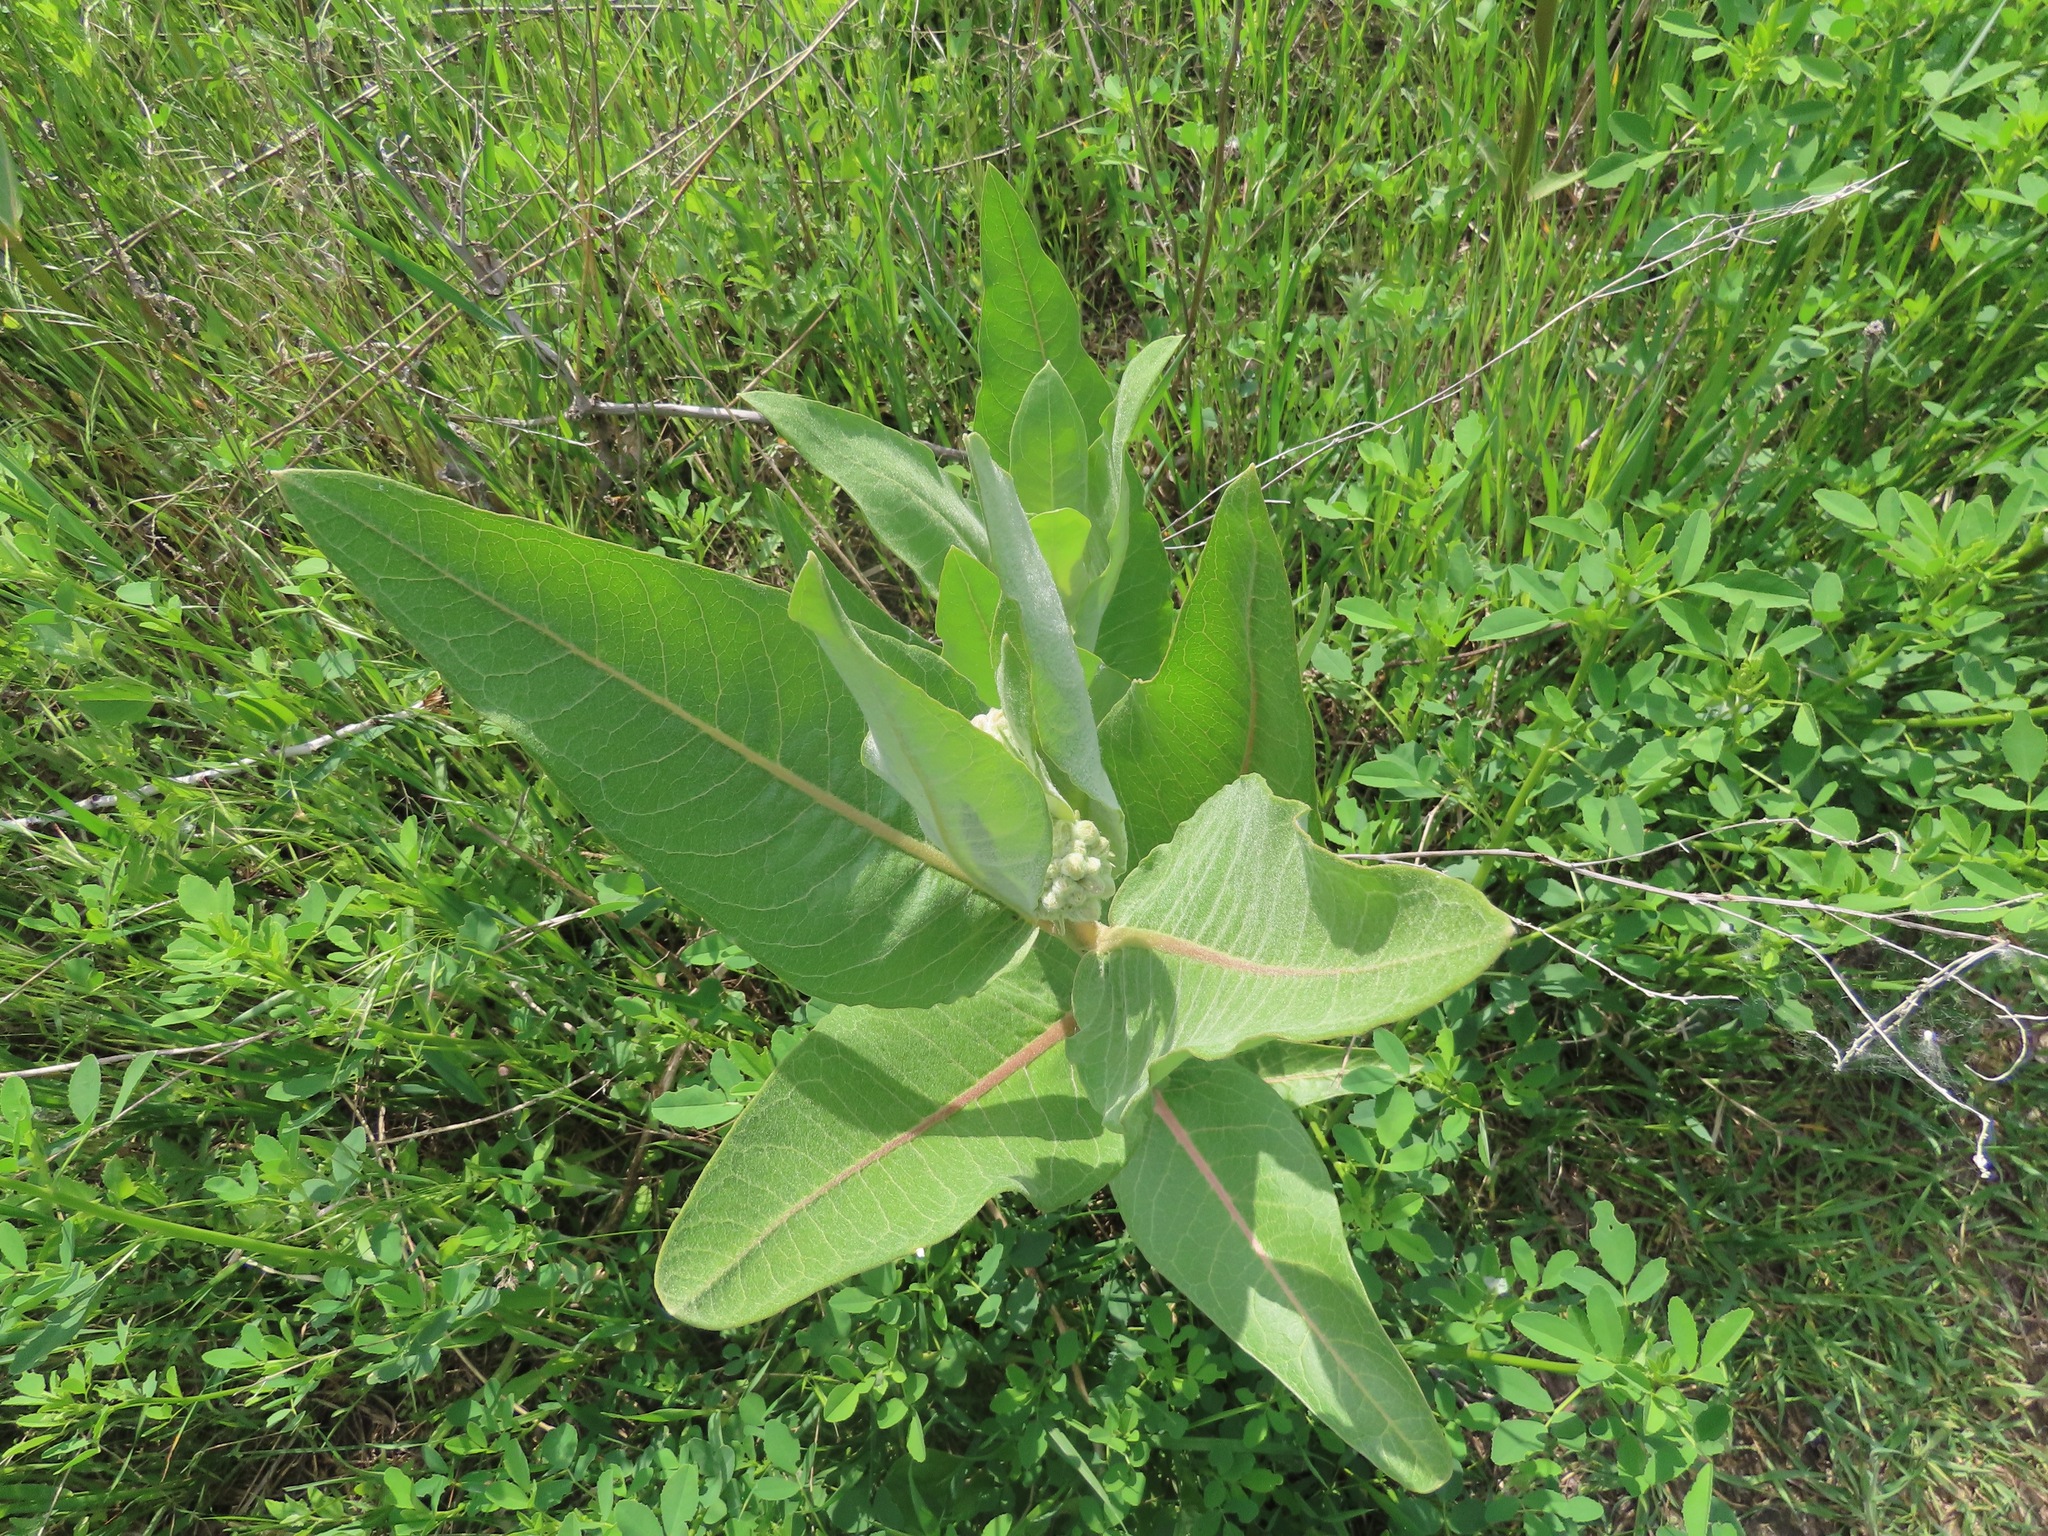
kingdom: Plantae
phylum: Tracheophyta
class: Magnoliopsida
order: Gentianales
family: Apocynaceae
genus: Asclepias
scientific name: Asclepias speciosa
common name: Showy milkweed
